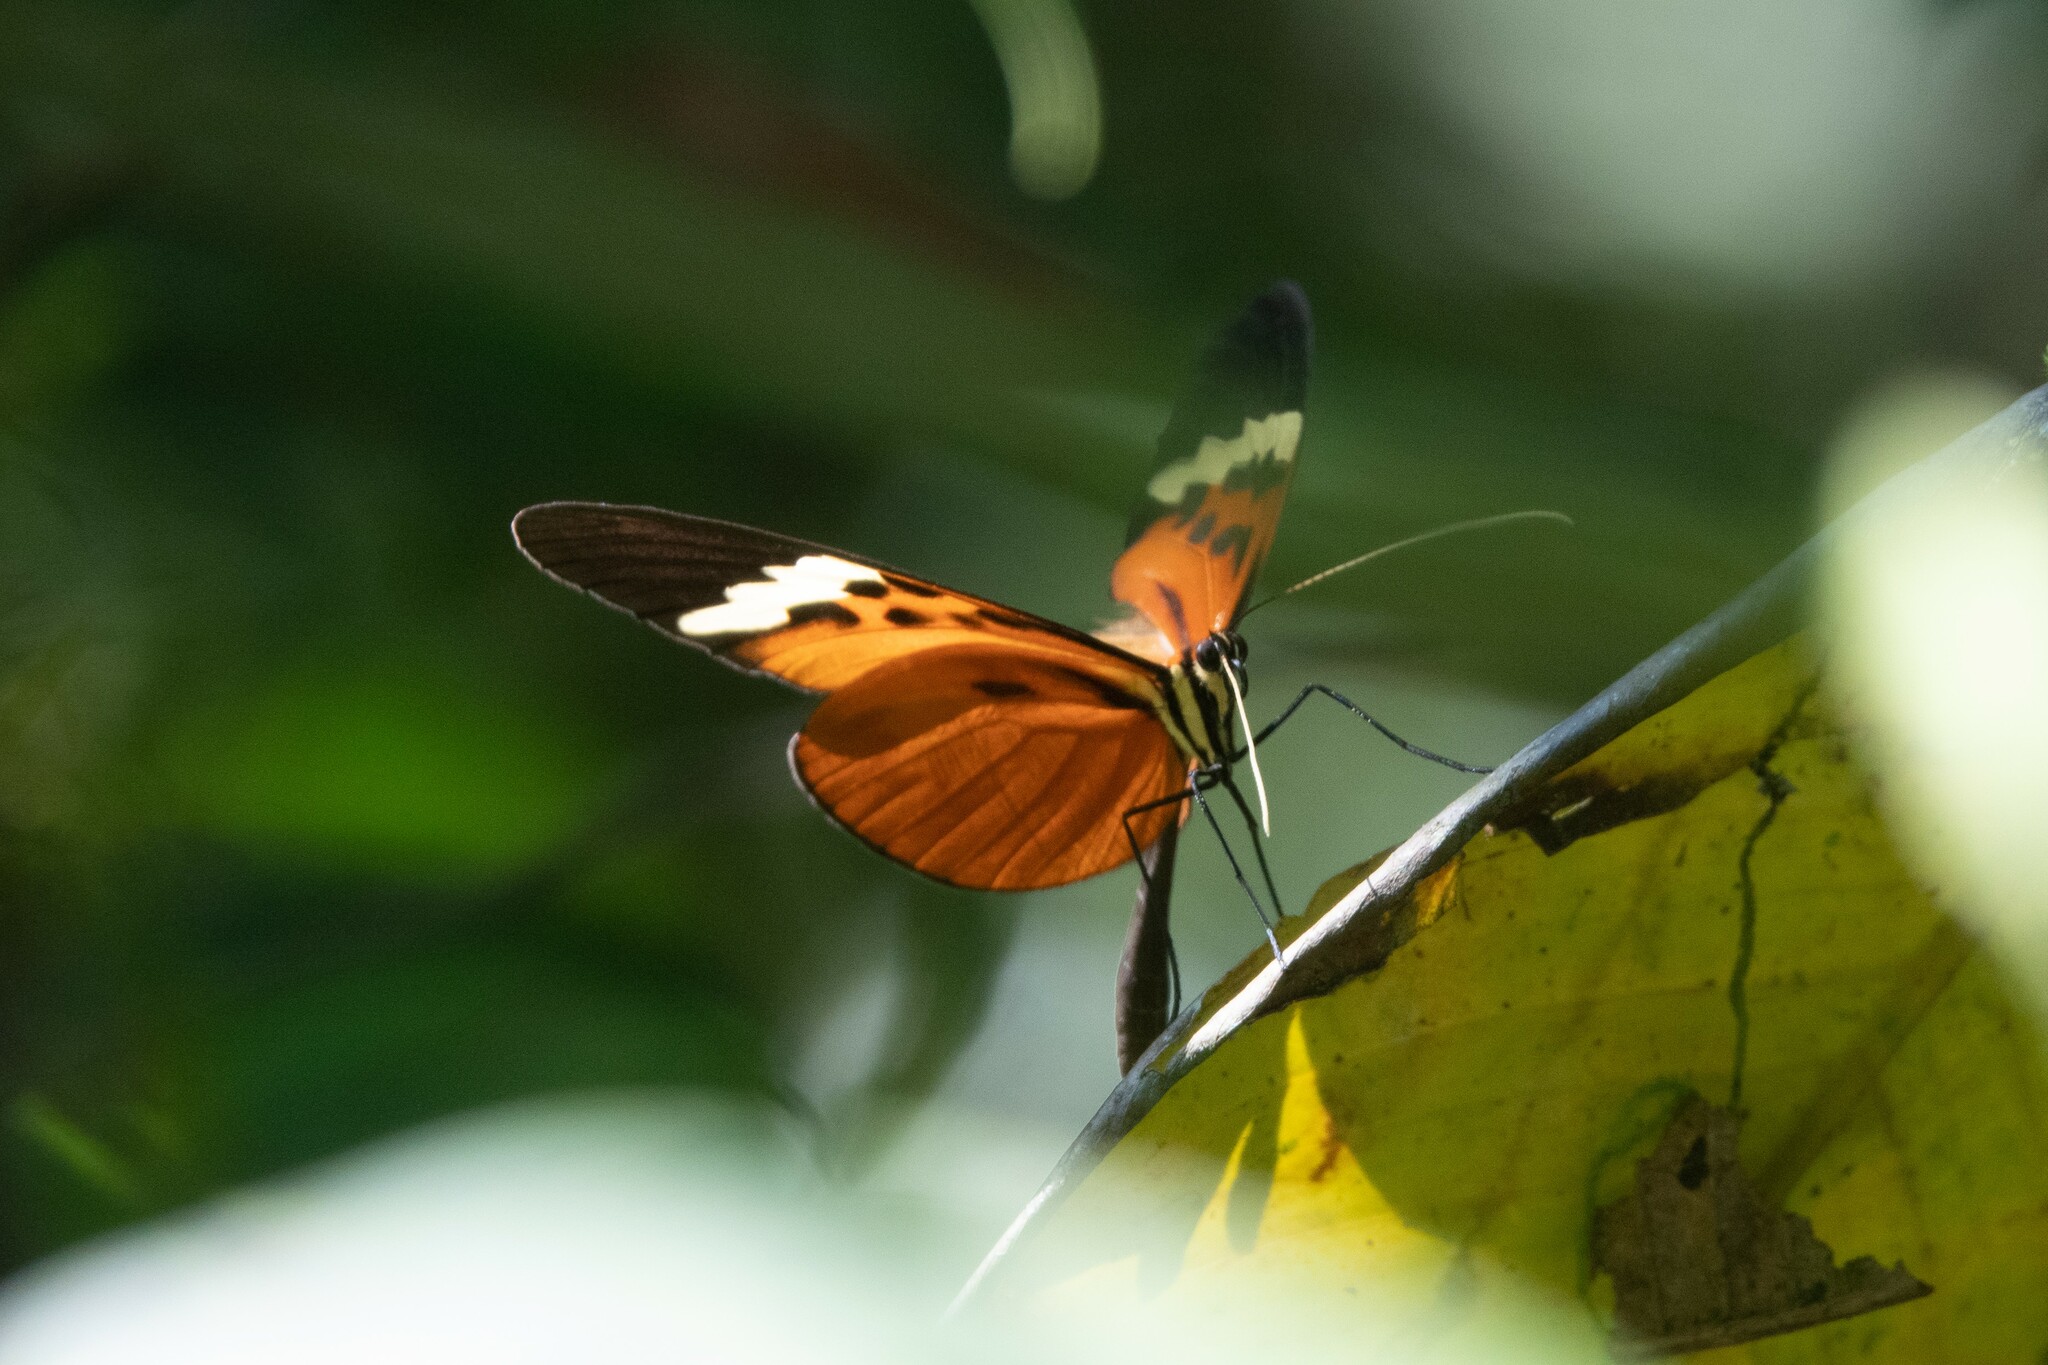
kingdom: Animalia
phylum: Arthropoda
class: Insecta
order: Lepidoptera
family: Nymphalidae
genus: Melinaea
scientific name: Melinaea menophilus
